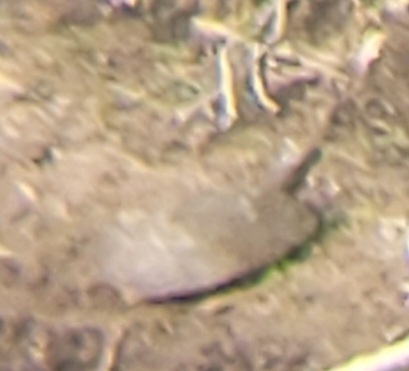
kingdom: Animalia
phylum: Chordata
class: Testudines
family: Trionychidae
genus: Apalone
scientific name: Apalone spinifera
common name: Spiny softshell turtle
